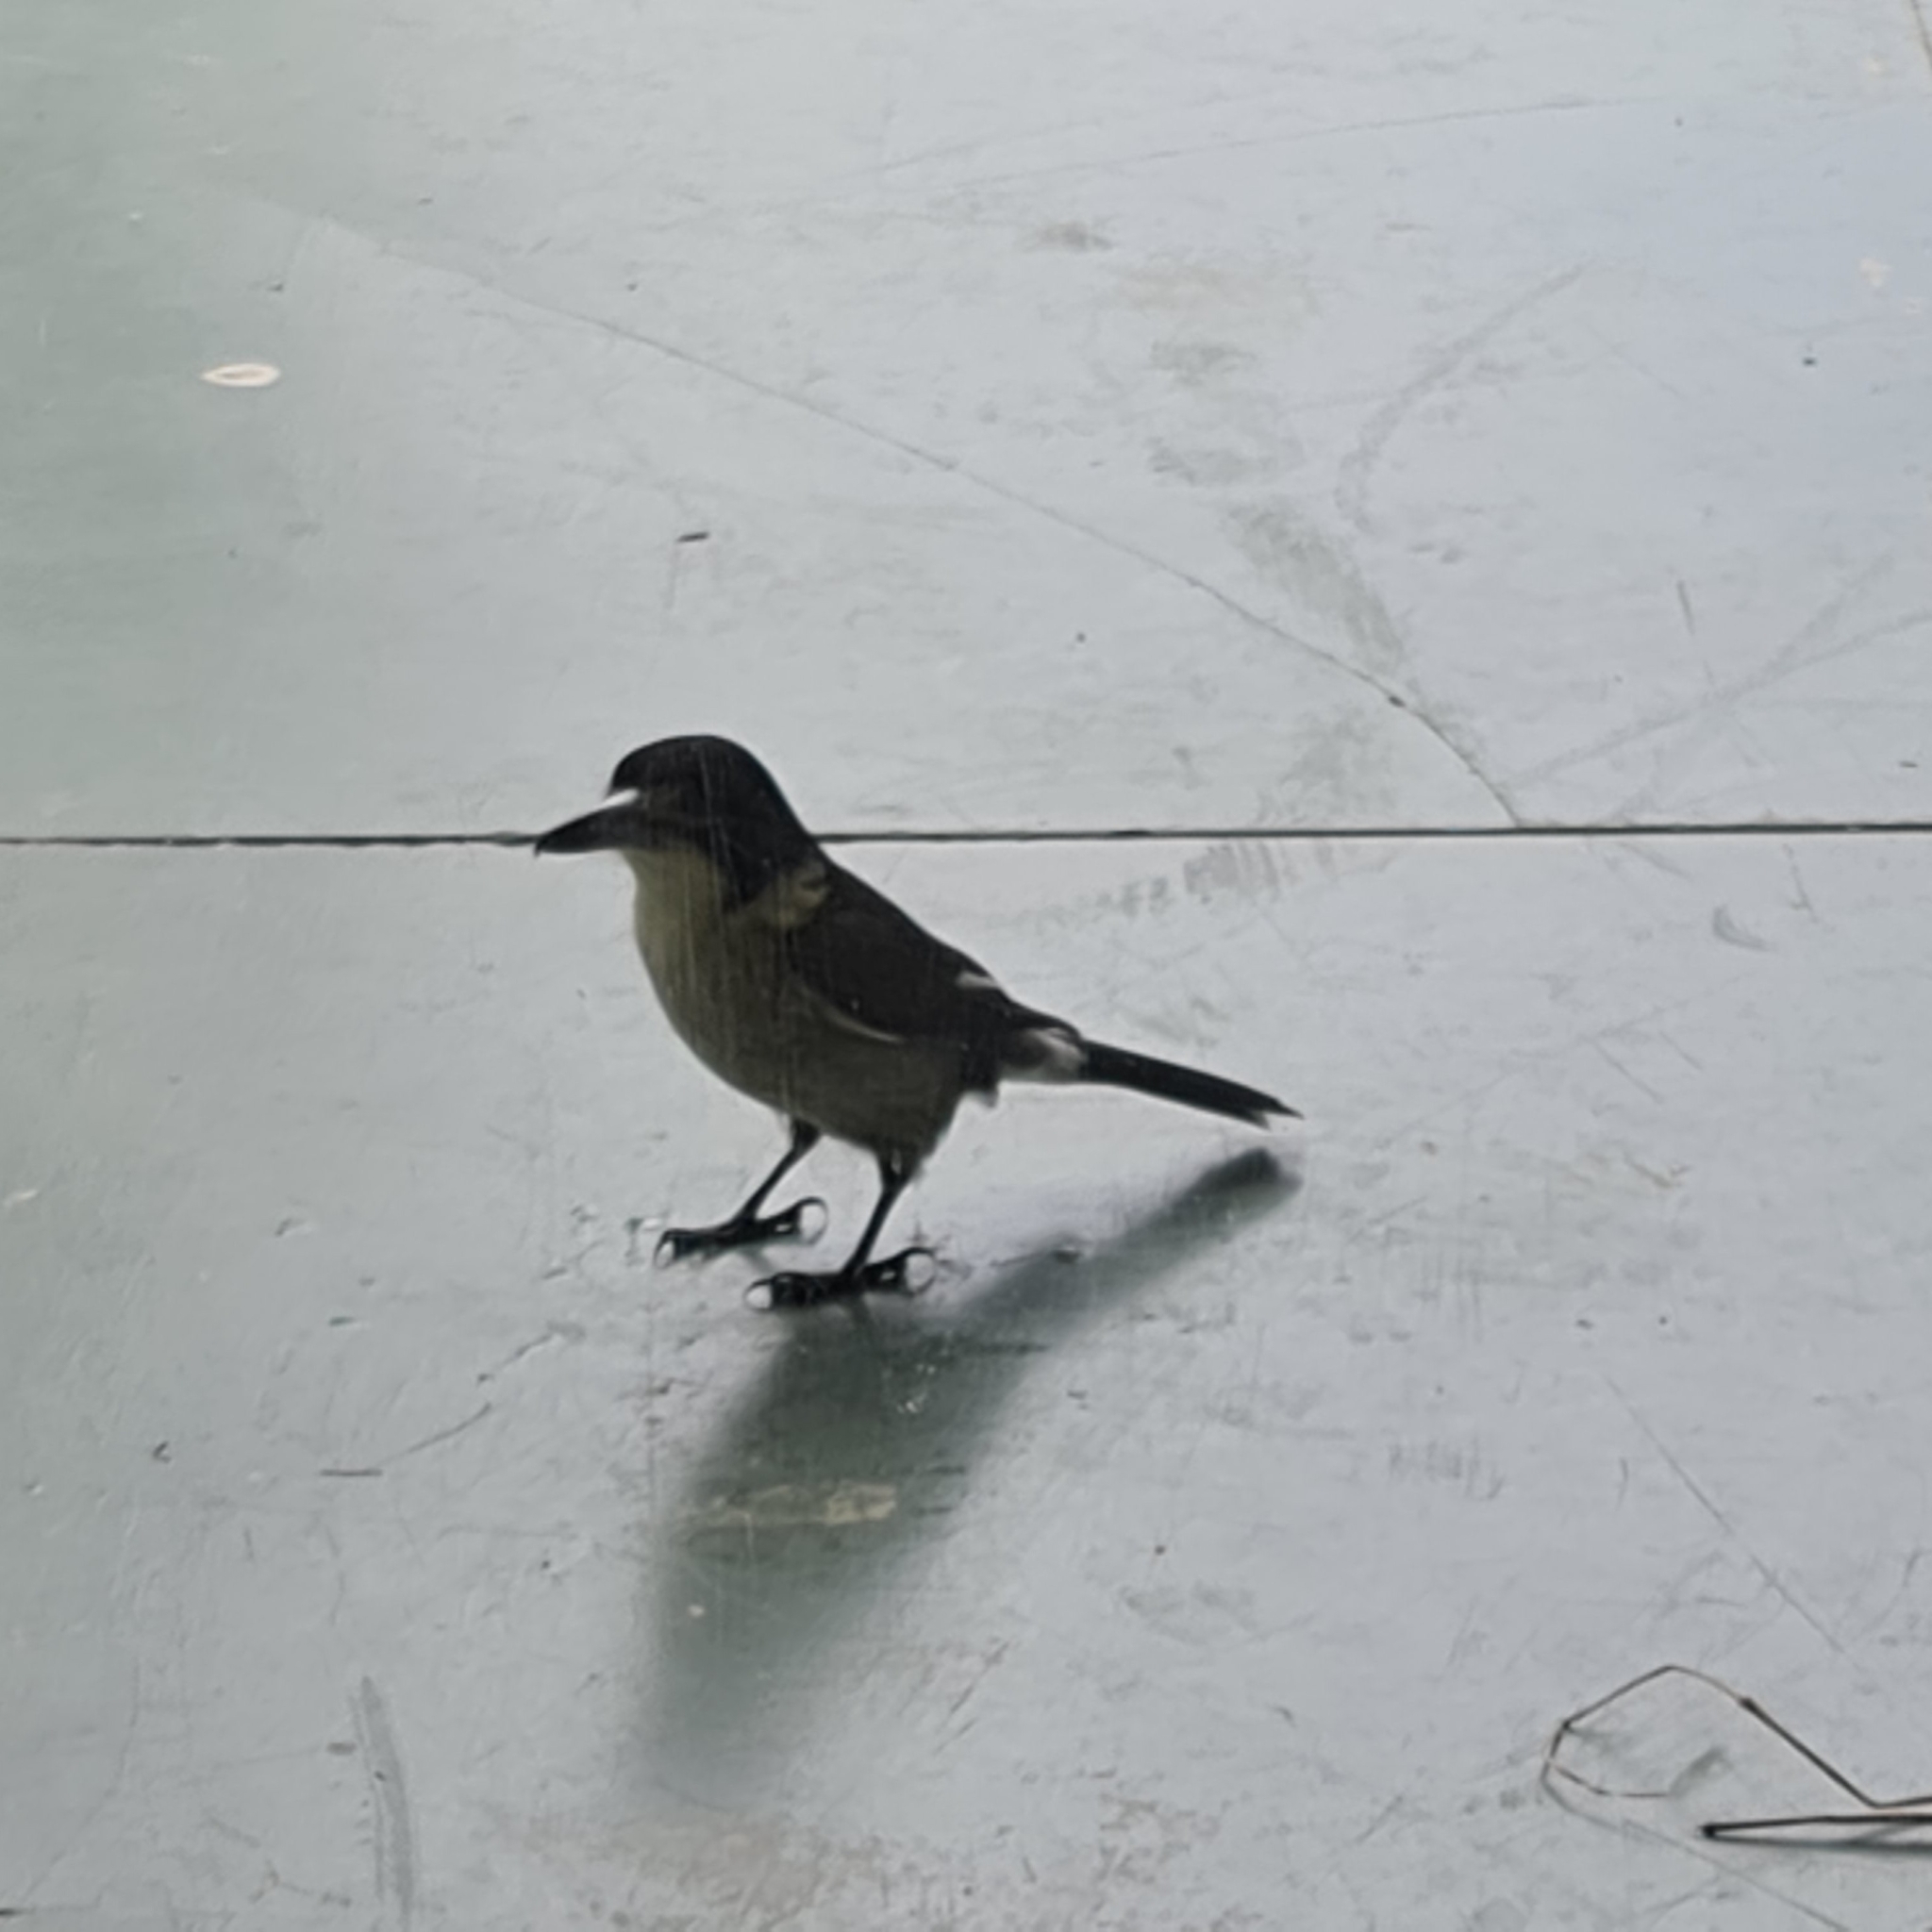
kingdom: Animalia
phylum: Chordata
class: Aves
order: Passeriformes
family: Cracticidae
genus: Cracticus
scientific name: Cracticus torquatus
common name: Grey butcherbird
